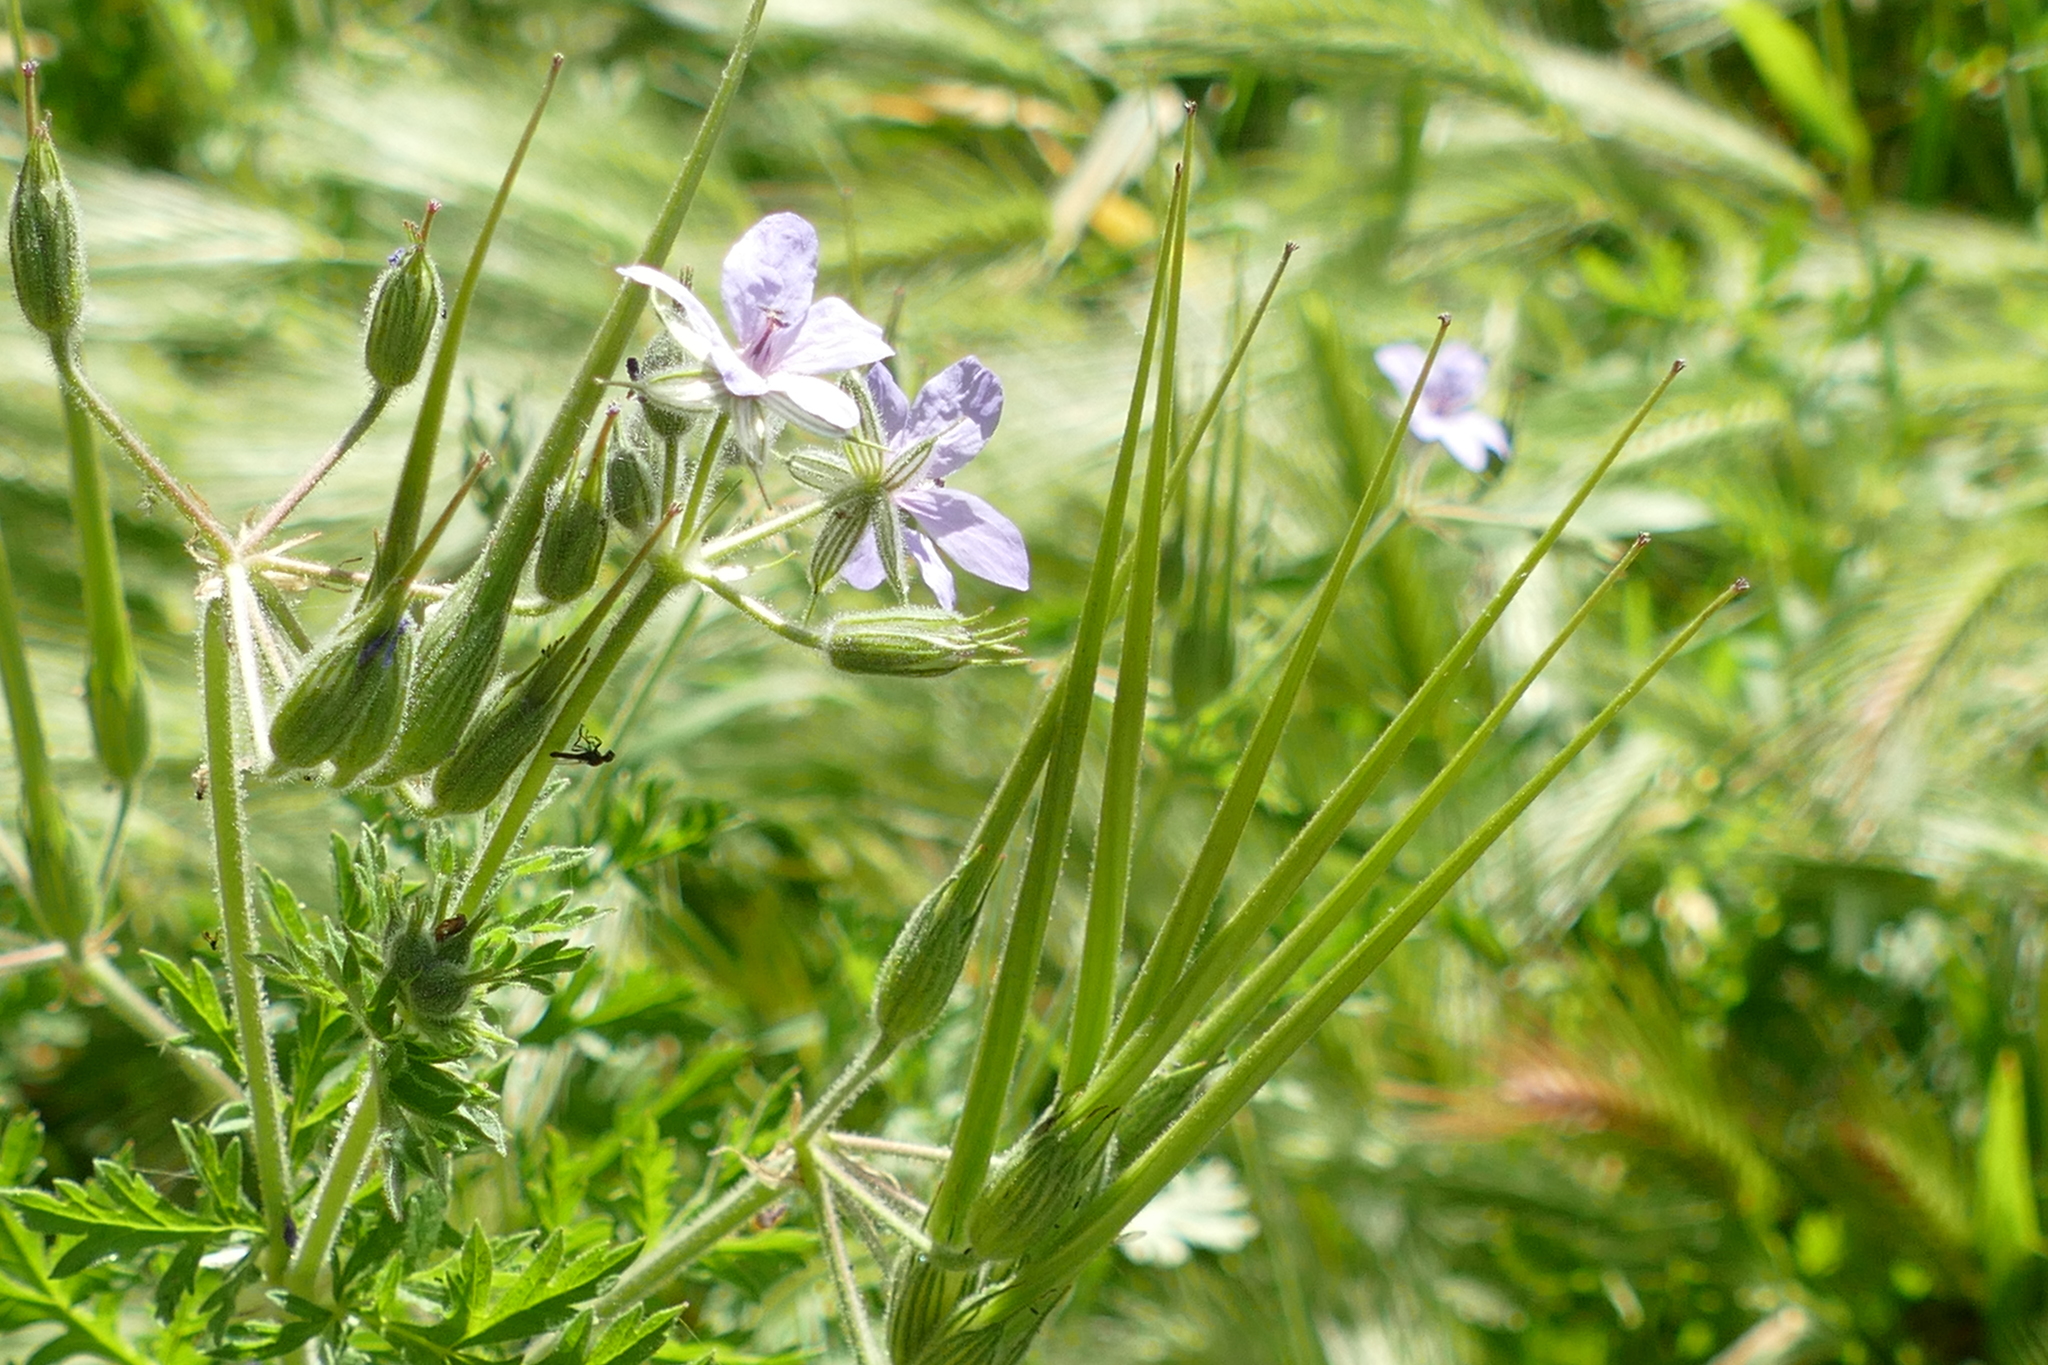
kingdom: Plantae
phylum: Tracheophyta
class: Magnoliopsida
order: Geraniales
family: Geraniaceae
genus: Erodium
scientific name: Erodium ciconium
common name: Common stork's bill
